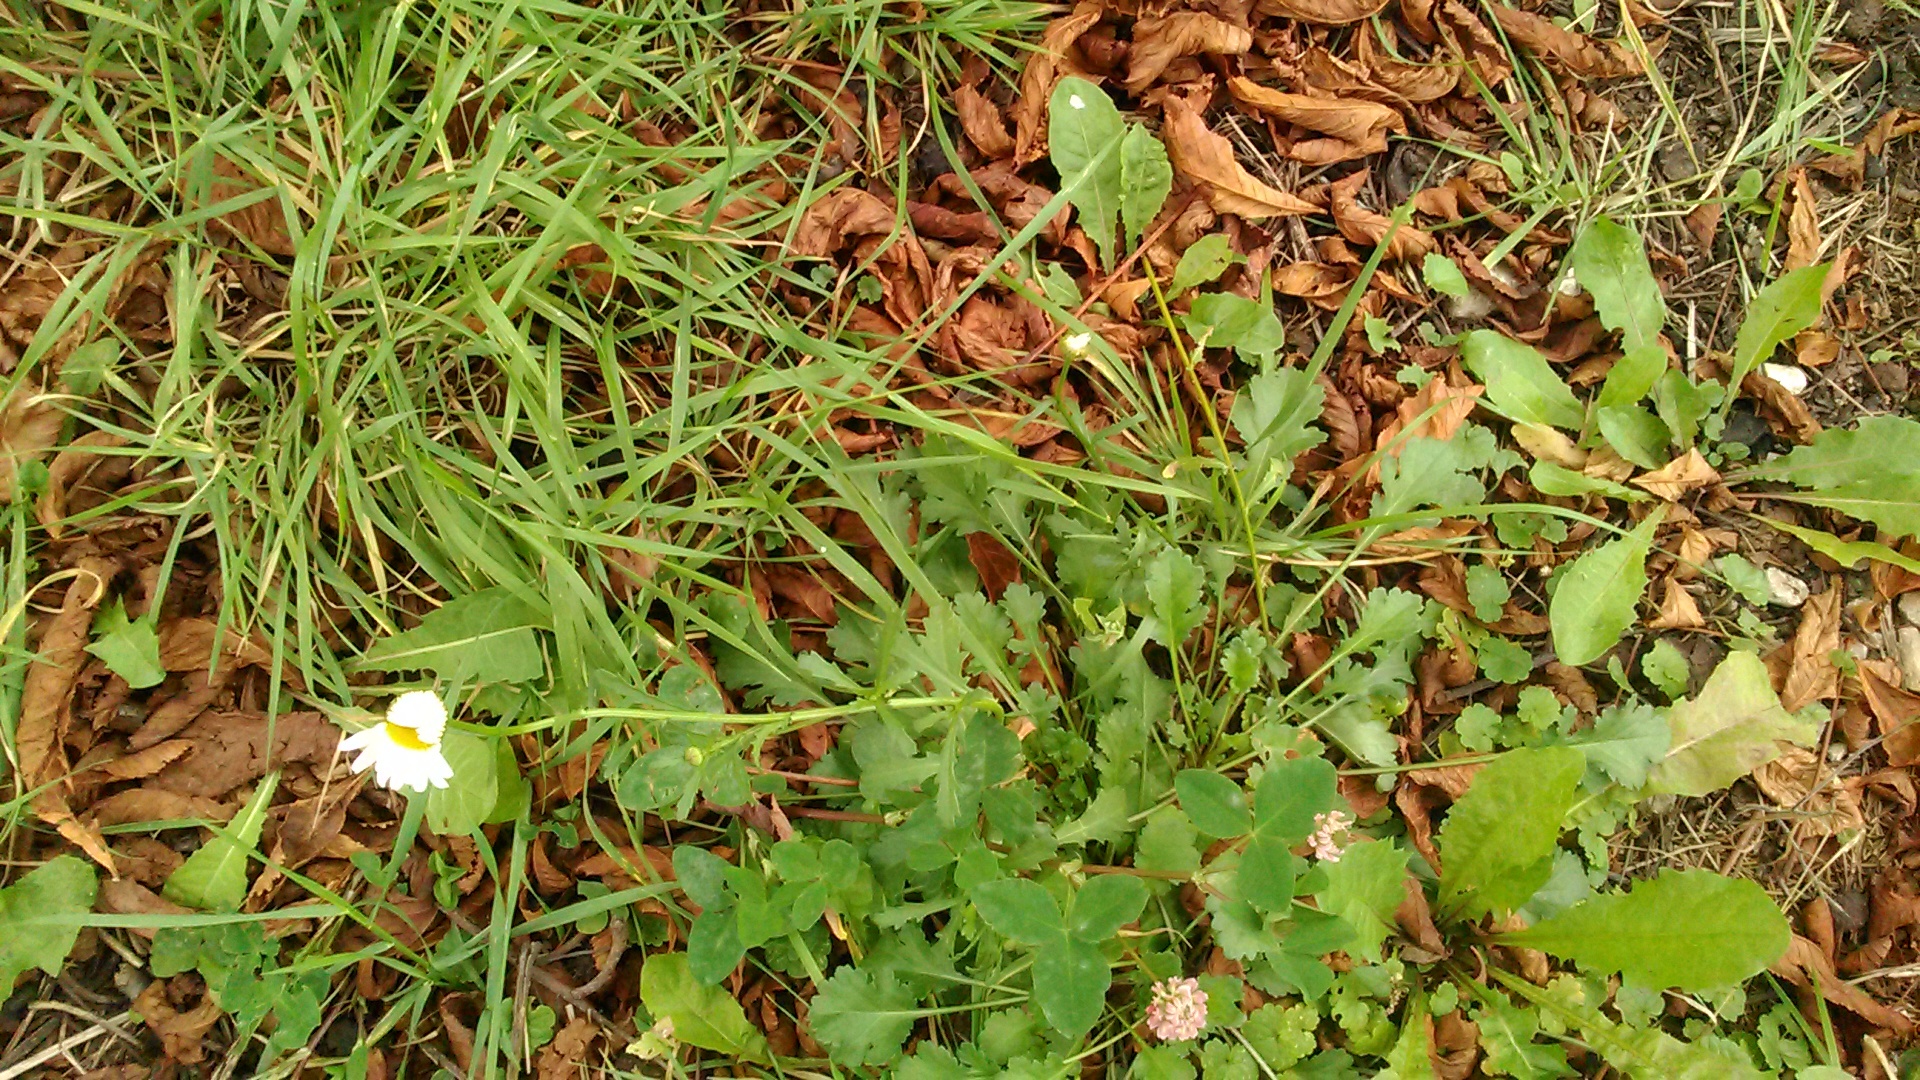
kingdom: Plantae
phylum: Tracheophyta
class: Magnoliopsida
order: Asterales
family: Asteraceae
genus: Leucanthemum
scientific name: Leucanthemum vulgare
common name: Oxeye daisy
